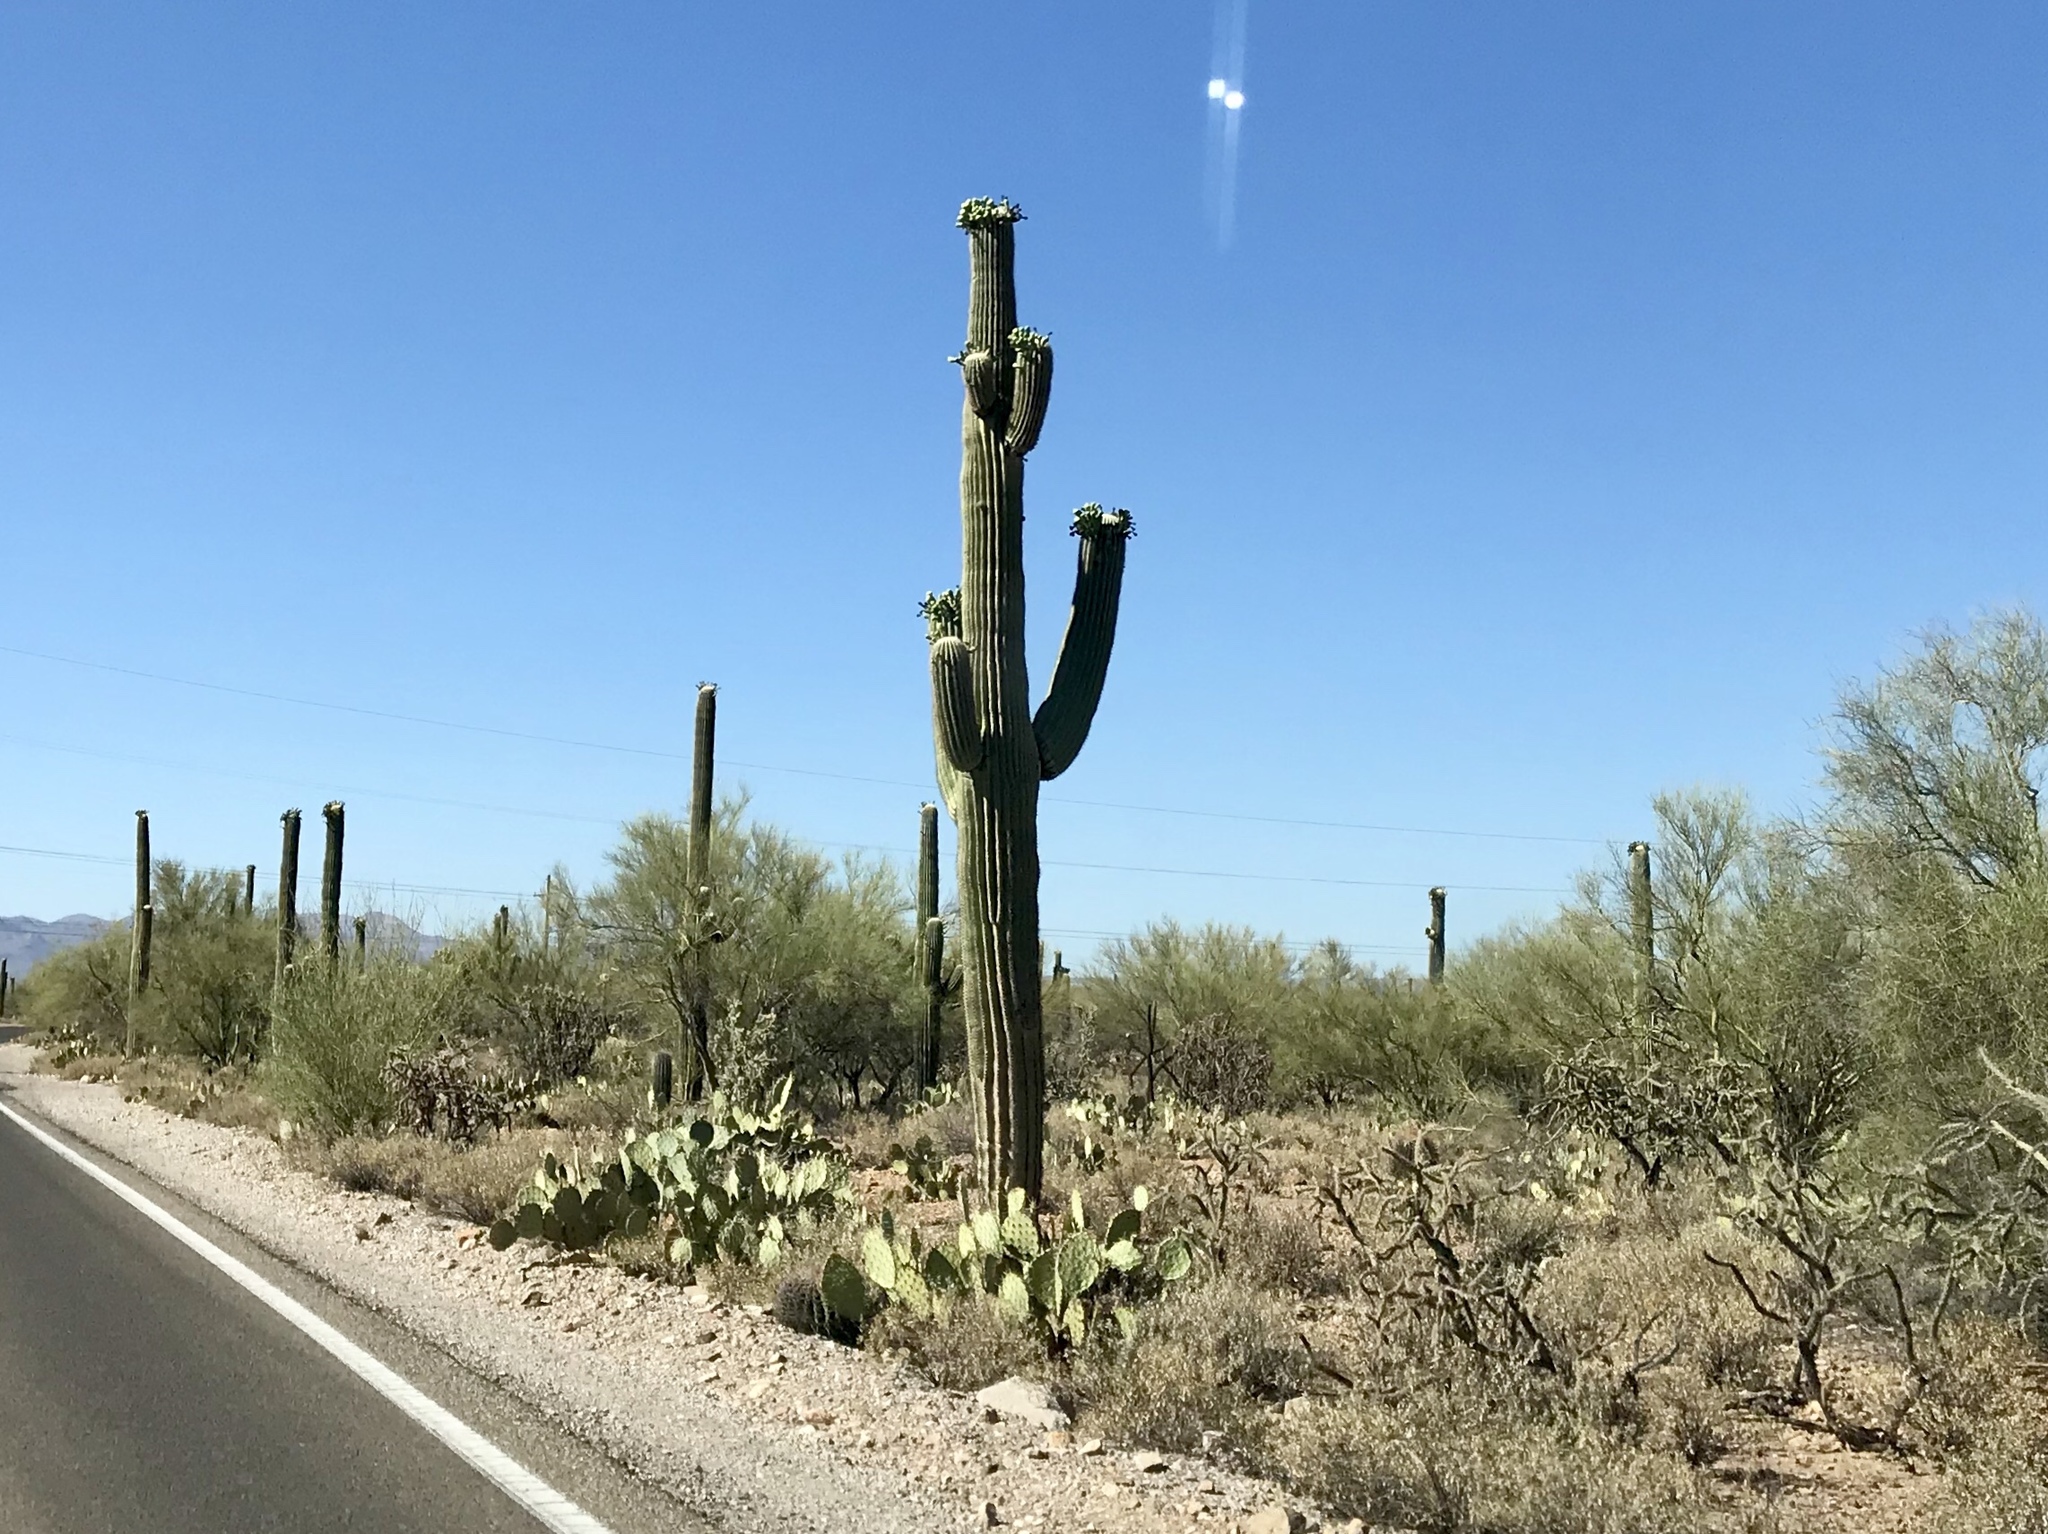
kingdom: Plantae
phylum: Tracheophyta
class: Magnoliopsida
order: Caryophyllales
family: Cactaceae
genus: Carnegiea
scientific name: Carnegiea gigantea
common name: Saguaro
